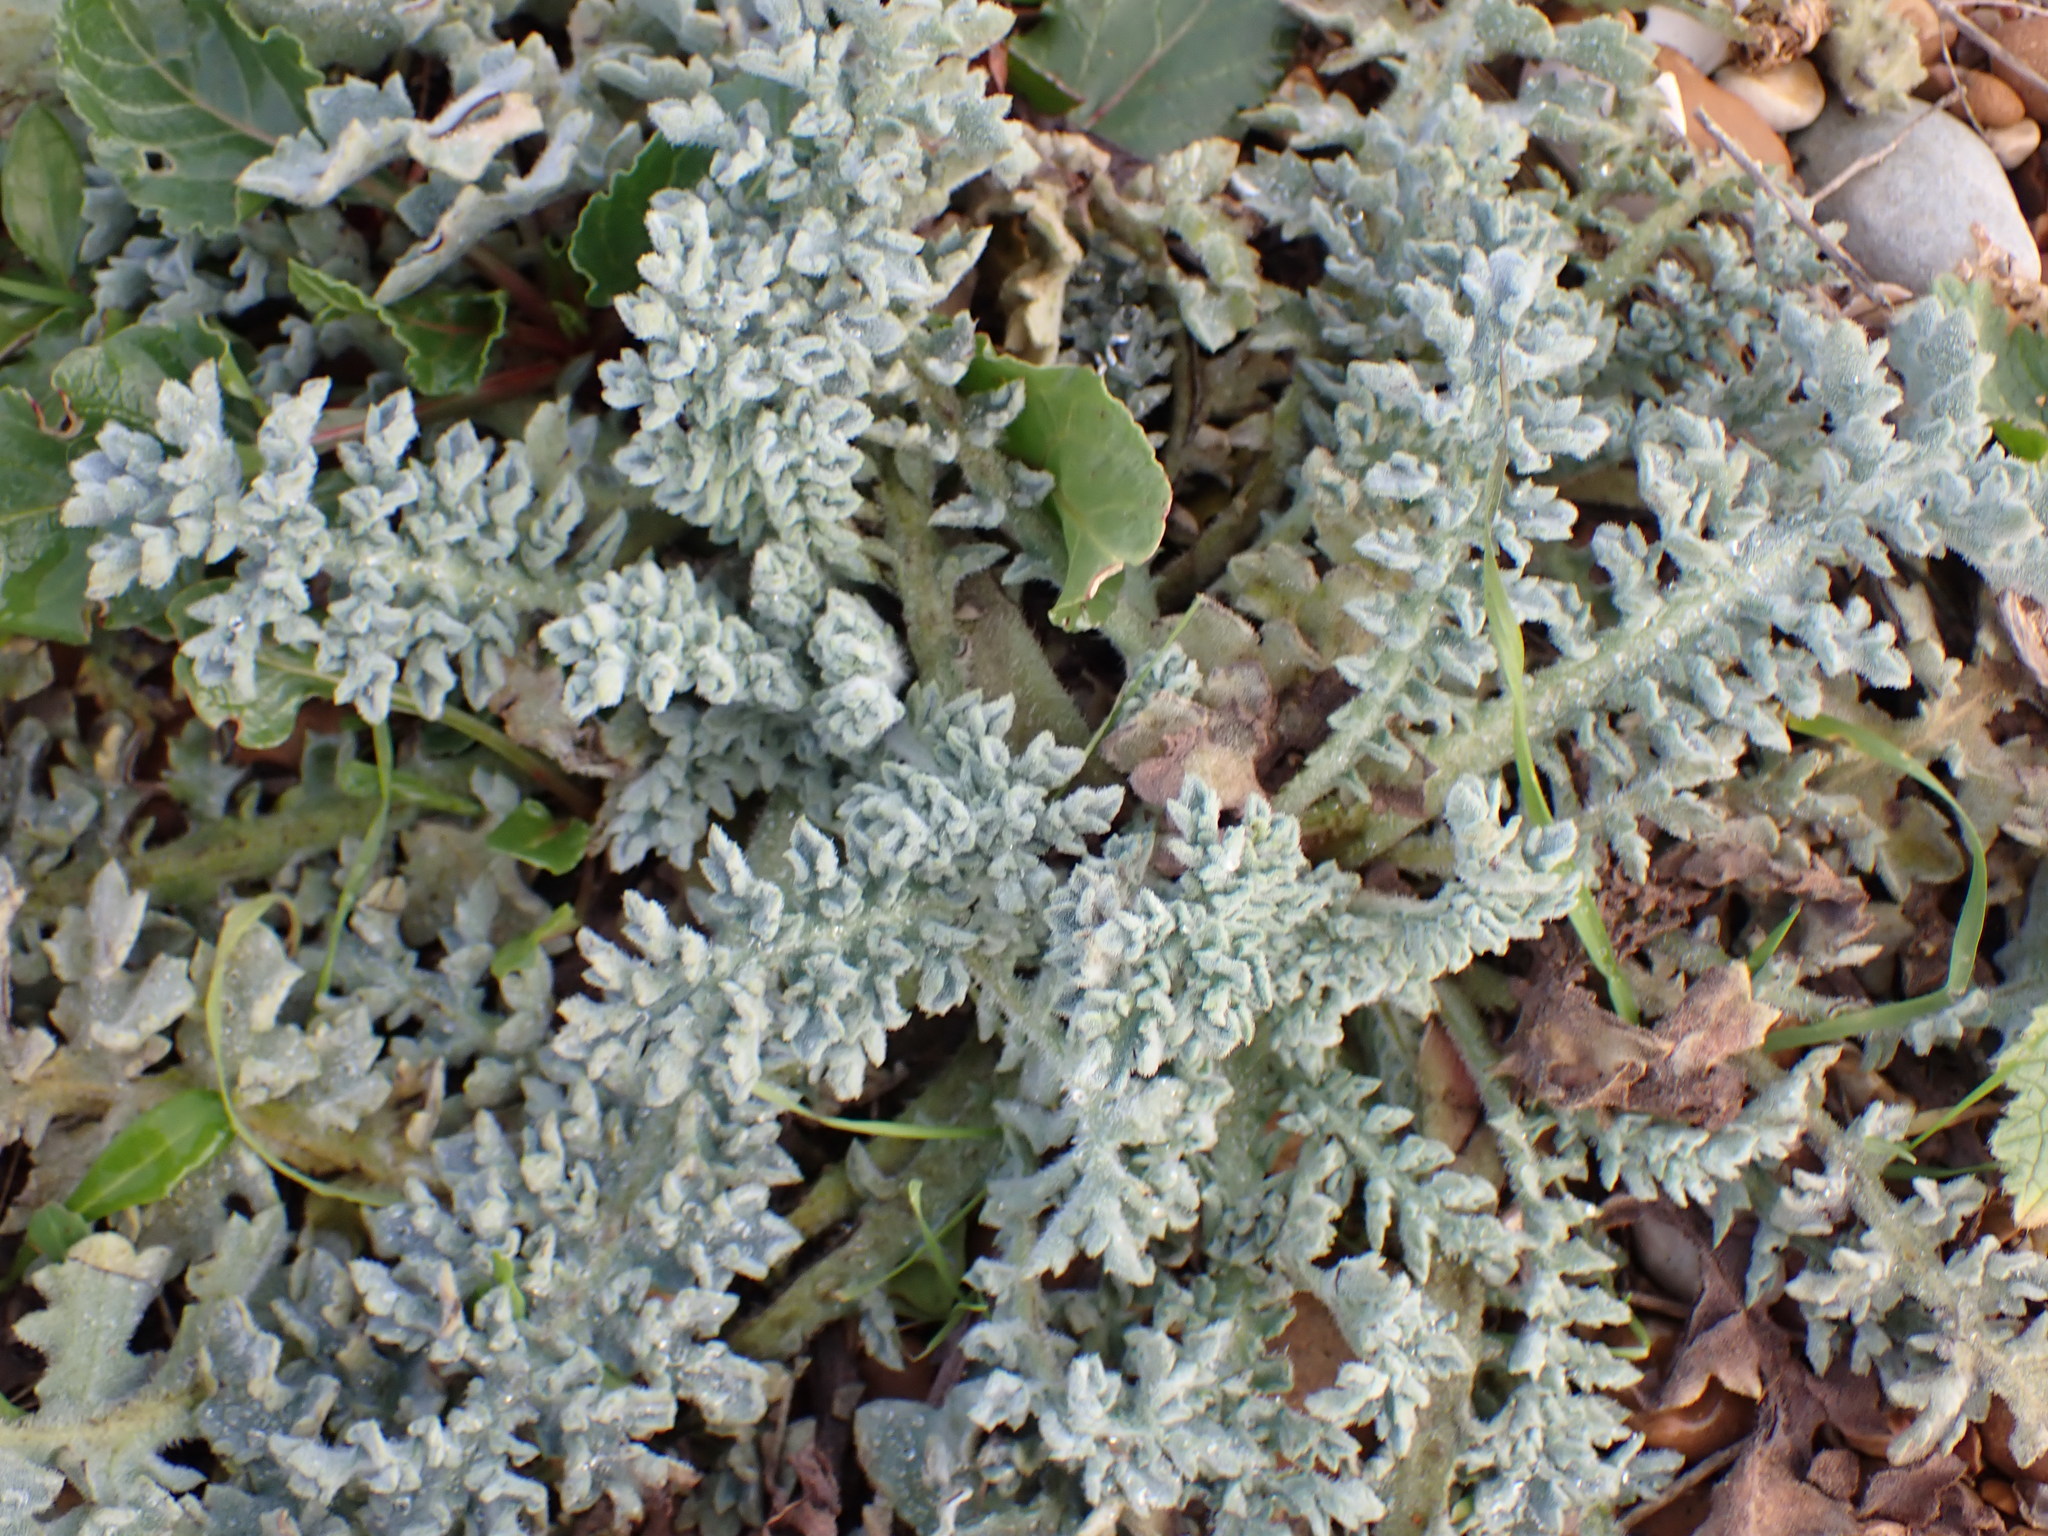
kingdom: Plantae
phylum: Tracheophyta
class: Magnoliopsida
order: Ranunculales
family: Papaveraceae
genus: Glaucium
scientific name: Glaucium flavum
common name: Yellow horned-poppy
